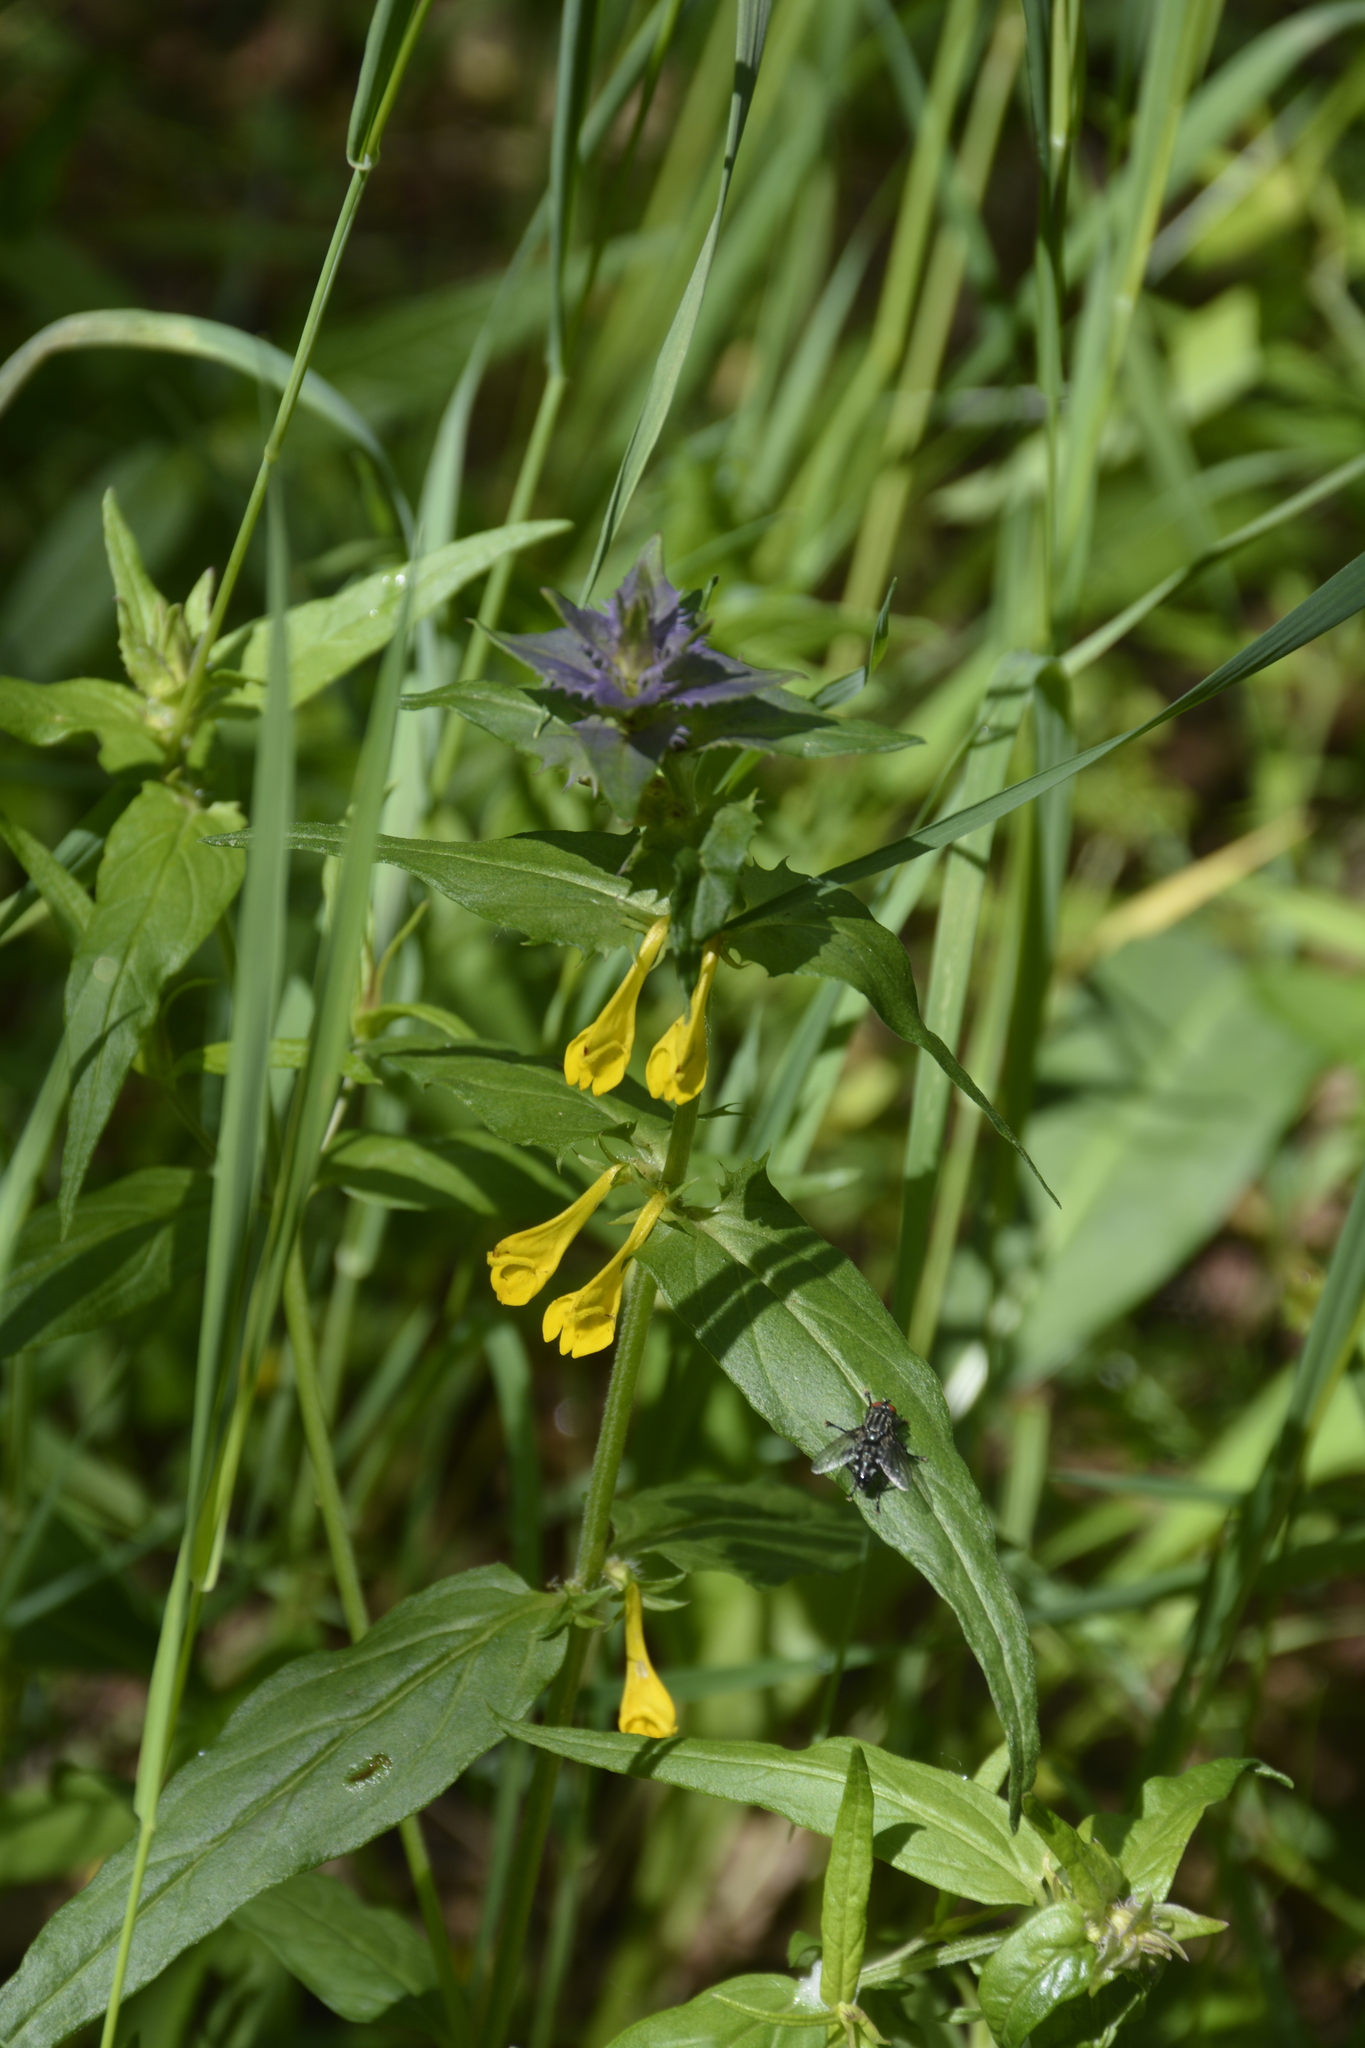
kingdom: Plantae
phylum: Tracheophyta
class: Magnoliopsida
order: Lamiales
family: Orobanchaceae
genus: Melampyrum
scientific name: Melampyrum nemorosum
